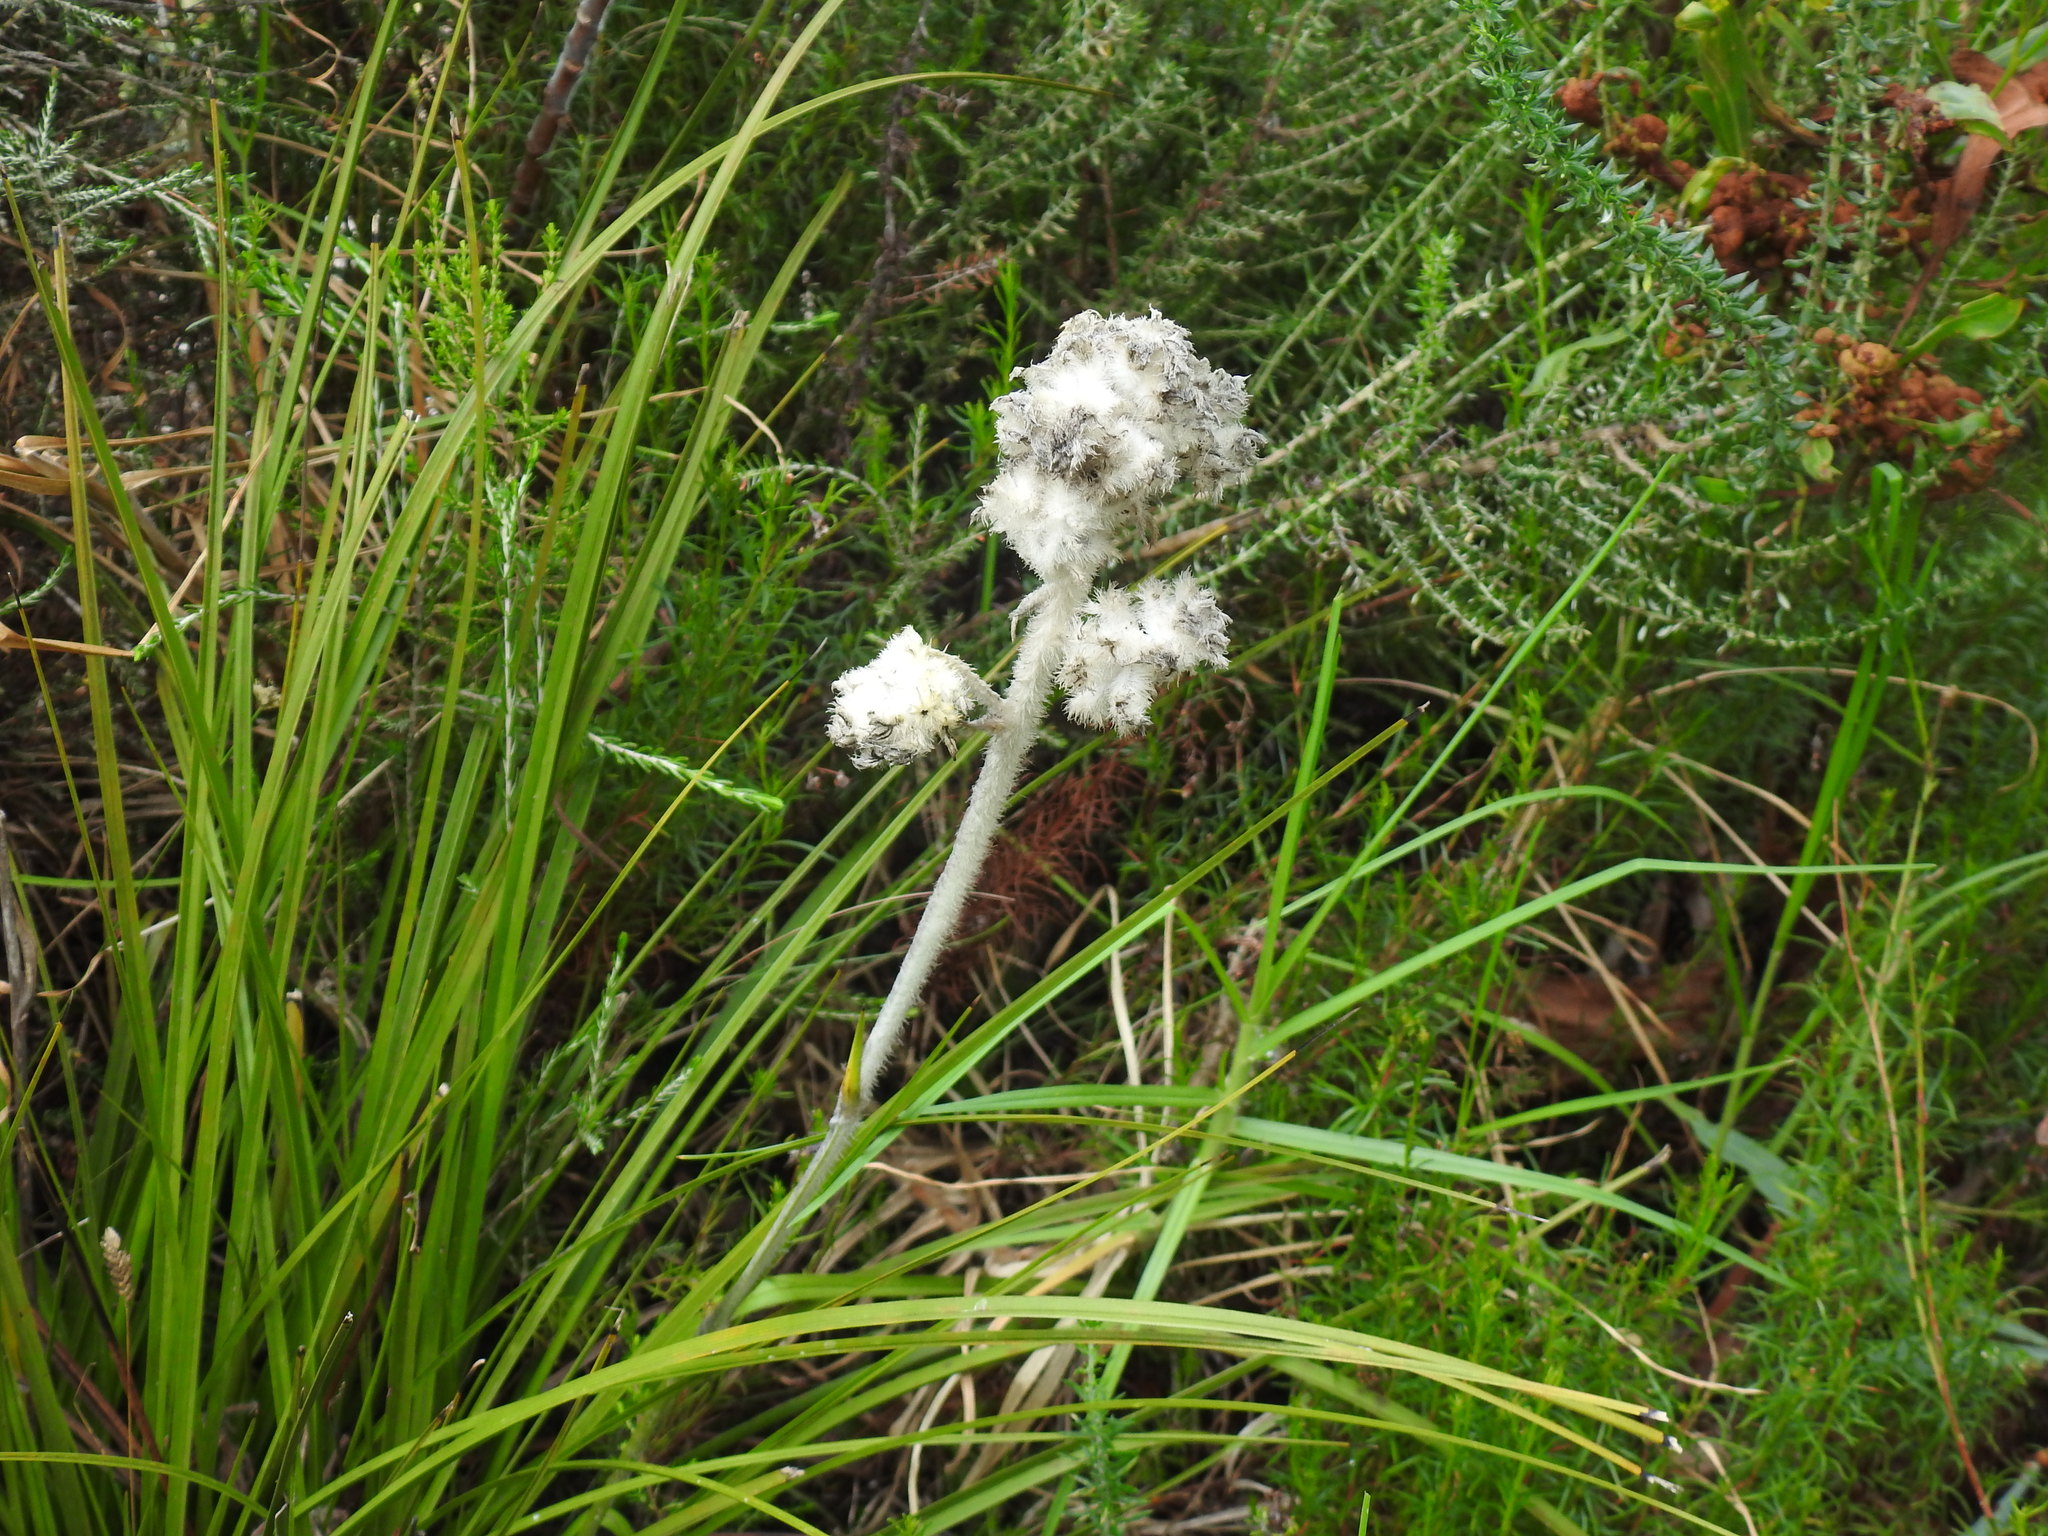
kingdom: Plantae
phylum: Tracheophyta
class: Liliopsida
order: Asparagales
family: Lanariaceae
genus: Lanaria
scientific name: Lanaria lanata
